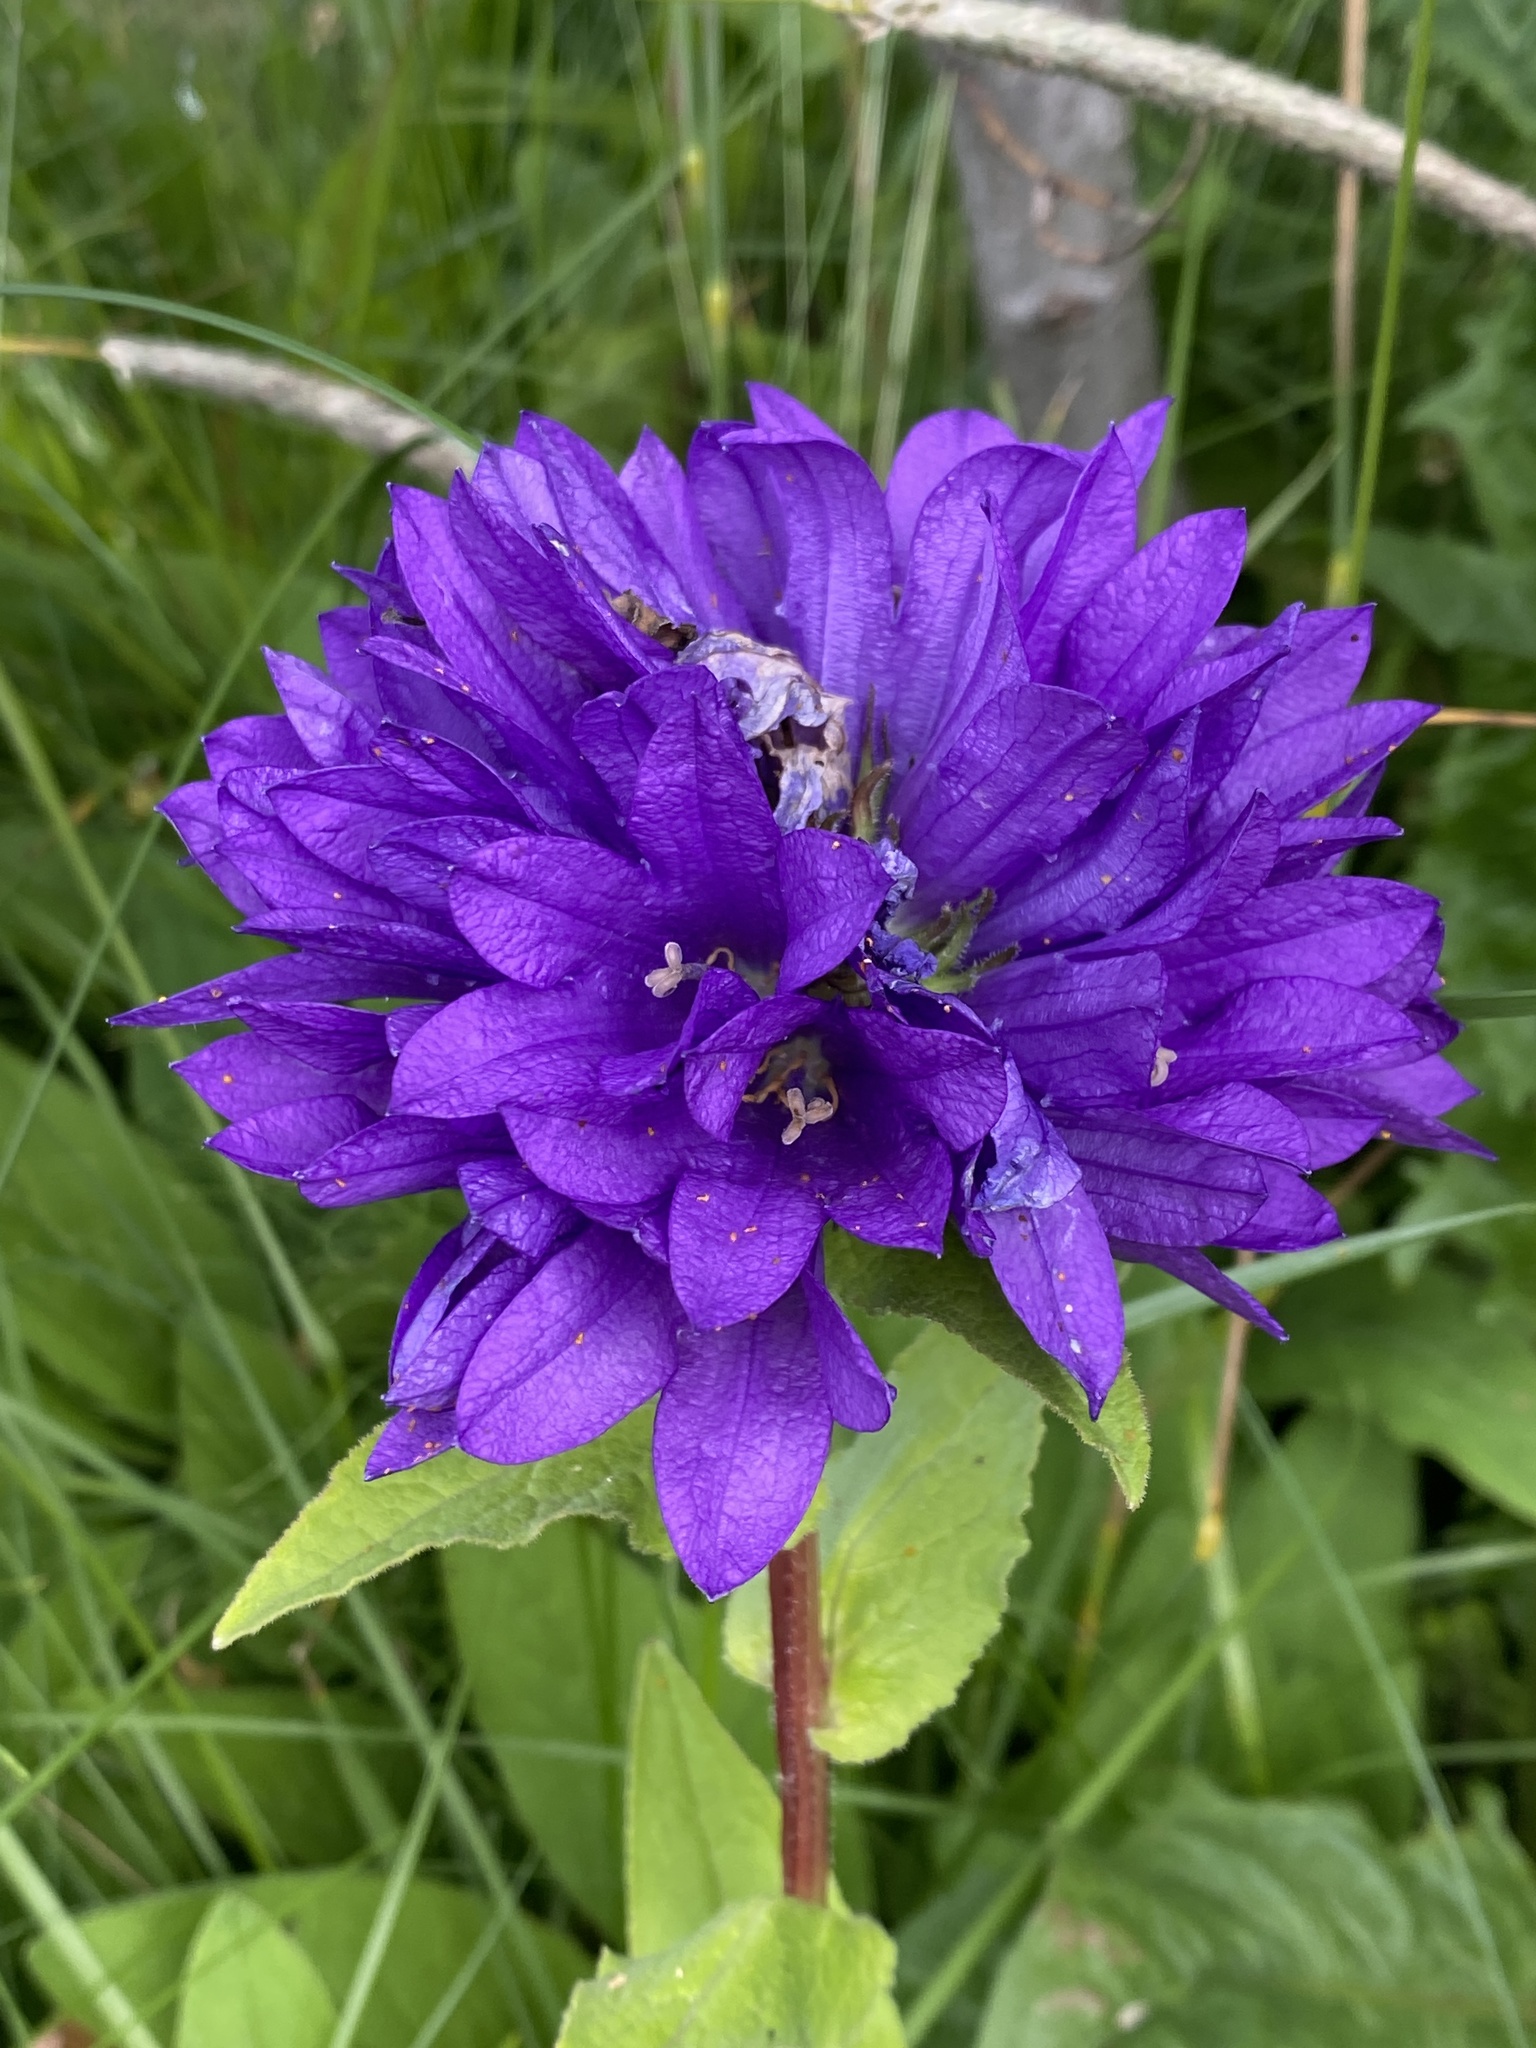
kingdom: Plantae
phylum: Tracheophyta
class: Magnoliopsida
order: Asterales
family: Campanulaceae
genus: Campanula
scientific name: Campanula glomerata
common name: Clustered bellflower
